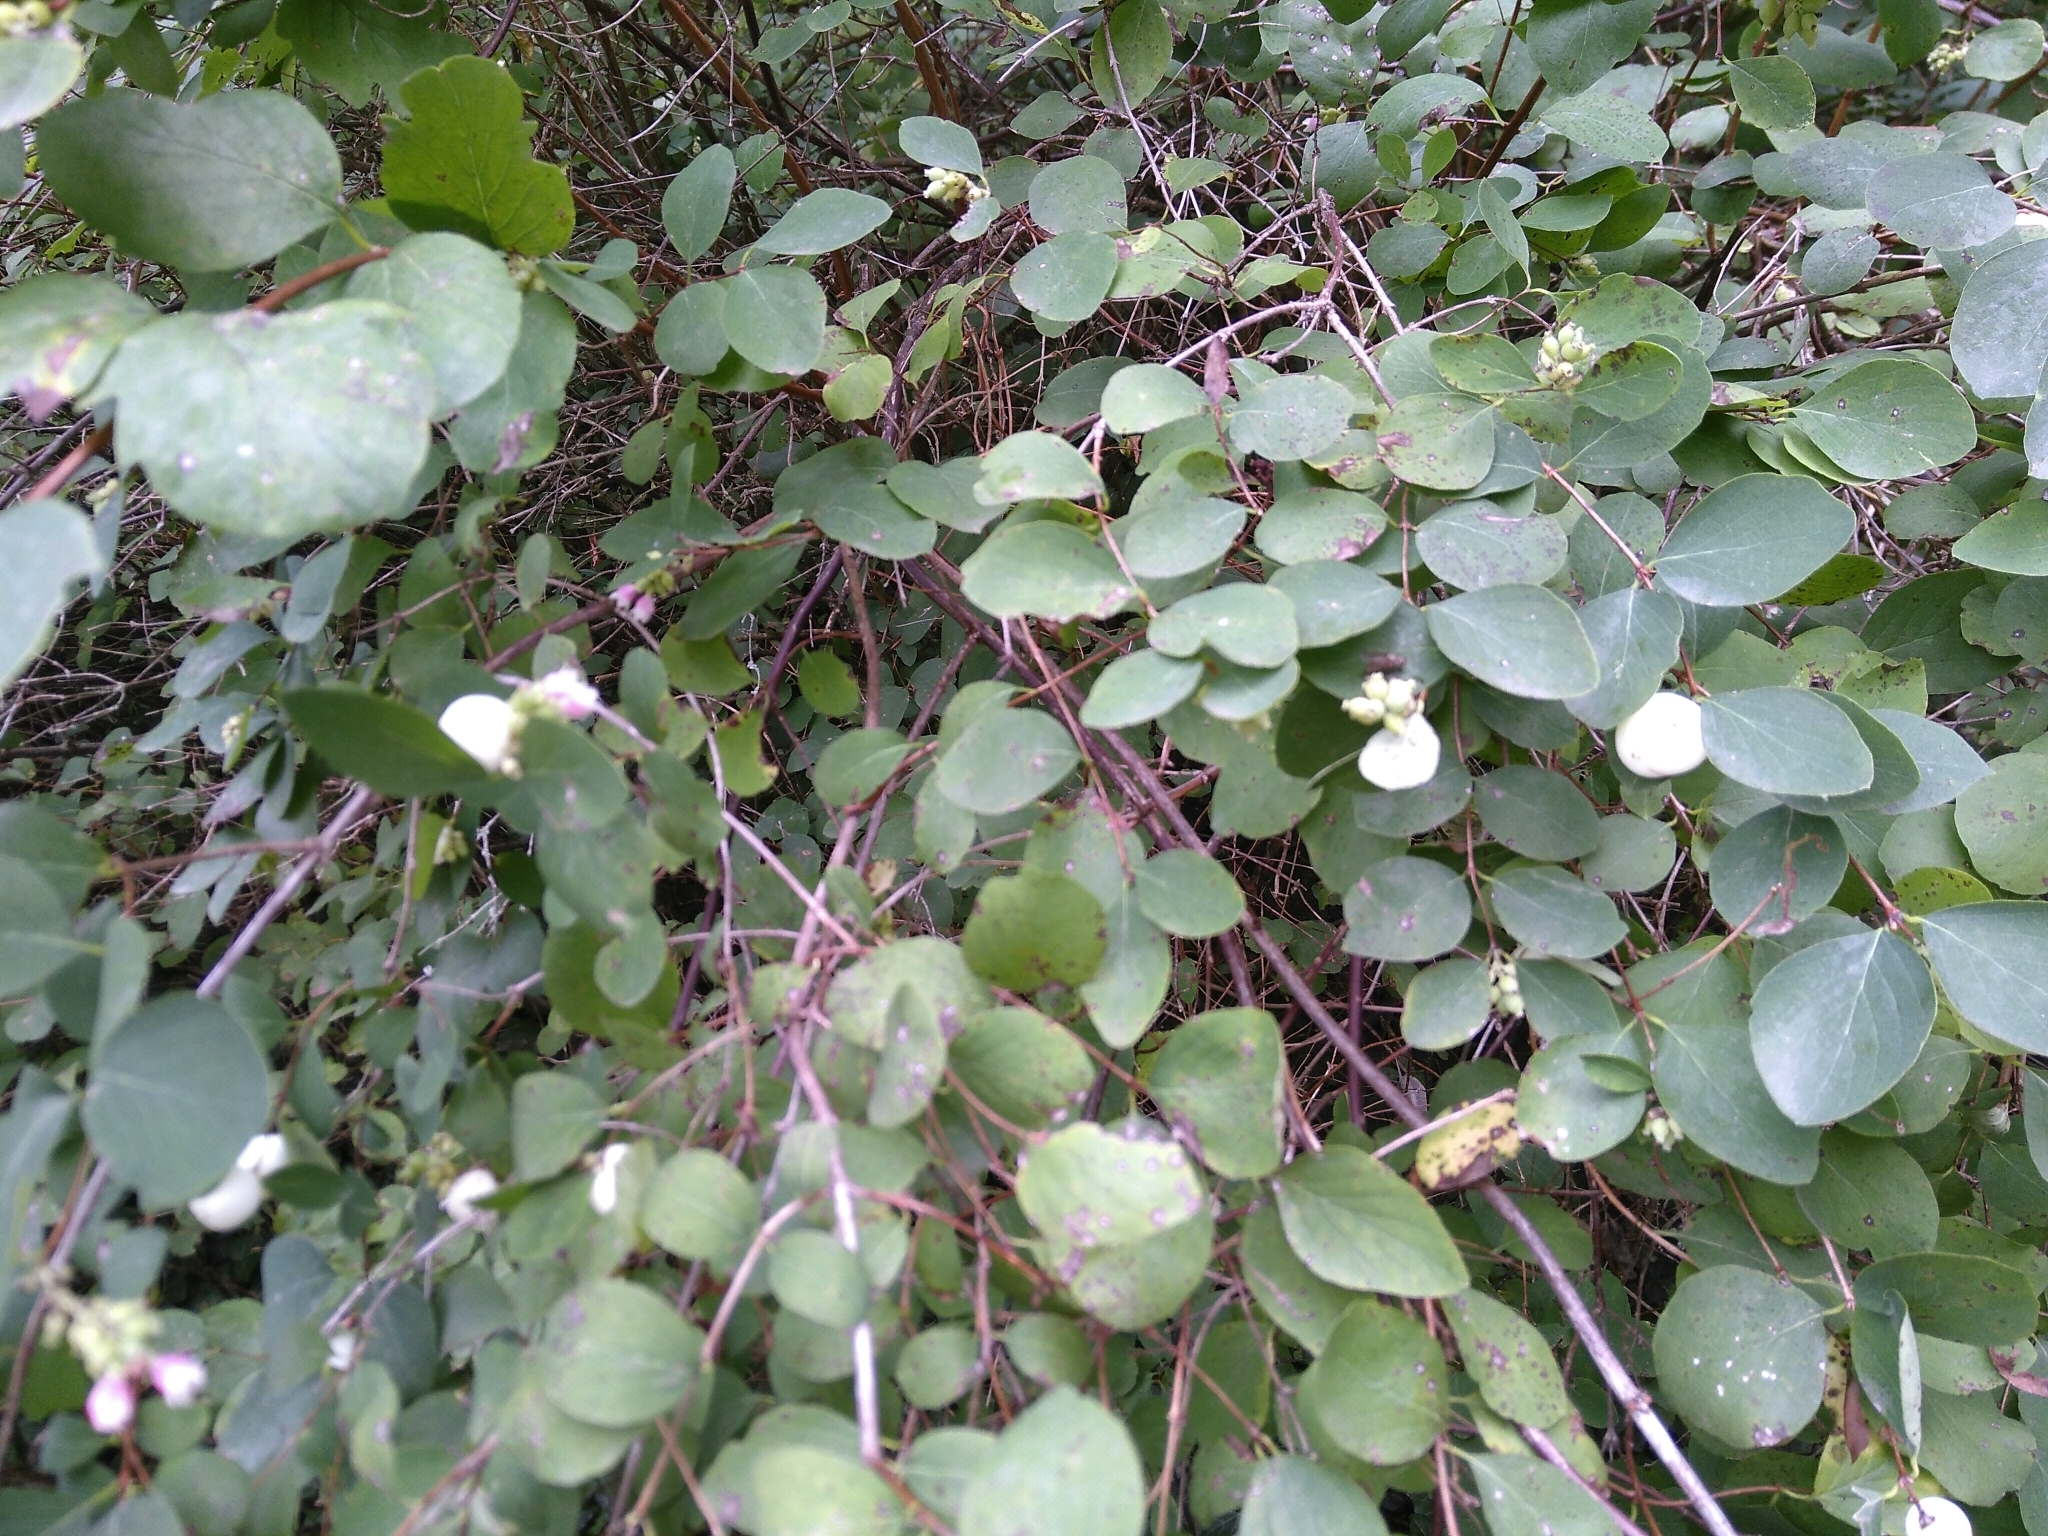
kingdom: Plantae
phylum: Tracheophyta
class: Magnoliopsida
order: Dipsacales
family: Caprifoliaceae
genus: Symphoricarpos
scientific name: Symphoricarpos albus
